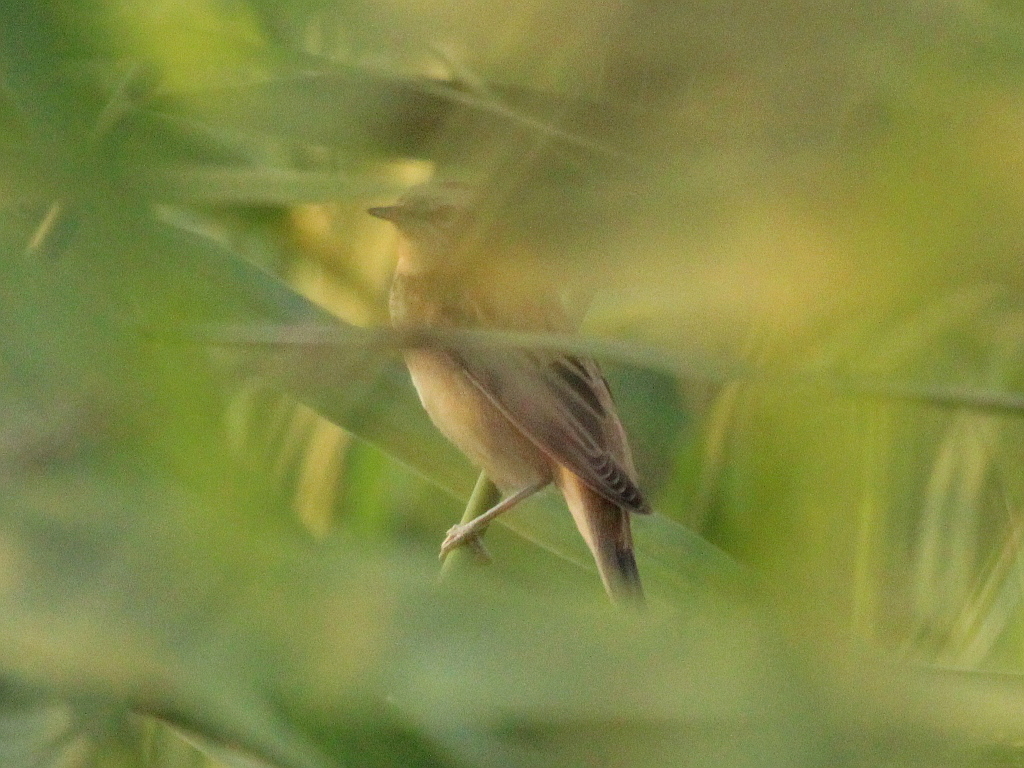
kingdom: Animalia
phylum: Chordata
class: Aves
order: Passeriformes
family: Acrocephalidae
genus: Acrocephalus
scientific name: Acrocephalus schoenobaenus
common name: Sedge warbler
